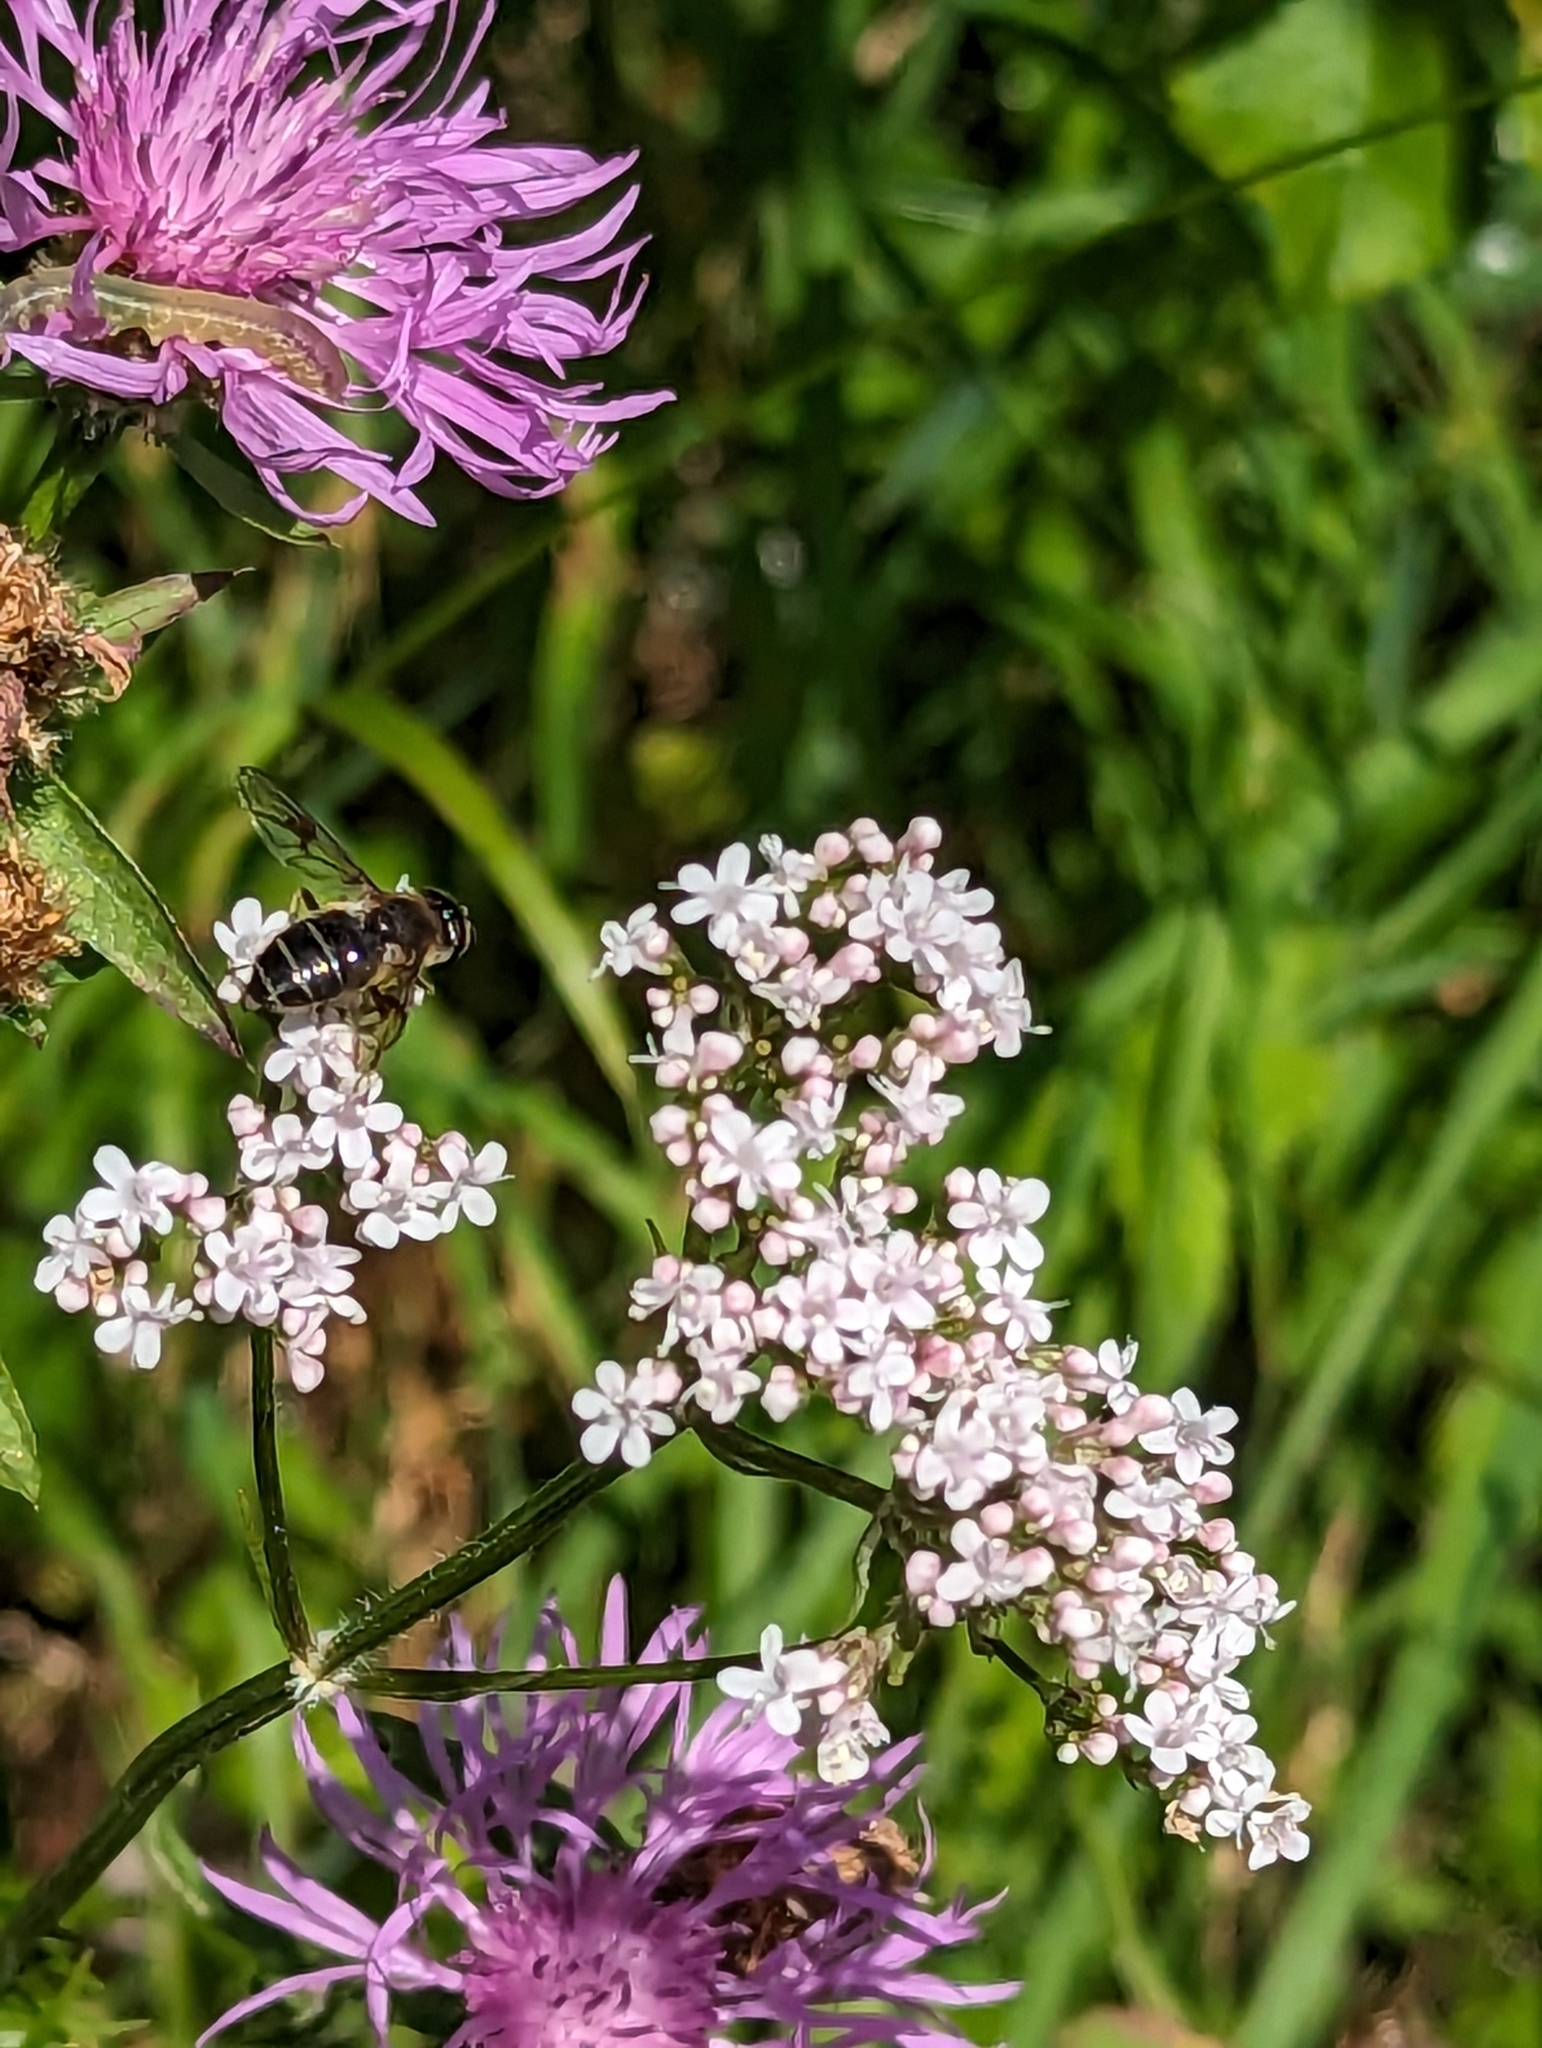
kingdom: Animalia
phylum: Arthropoda
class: Insecta
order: Diptera
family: Syrphidae
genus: Eristalis
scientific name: Eristalis rupium
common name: Hover fly
